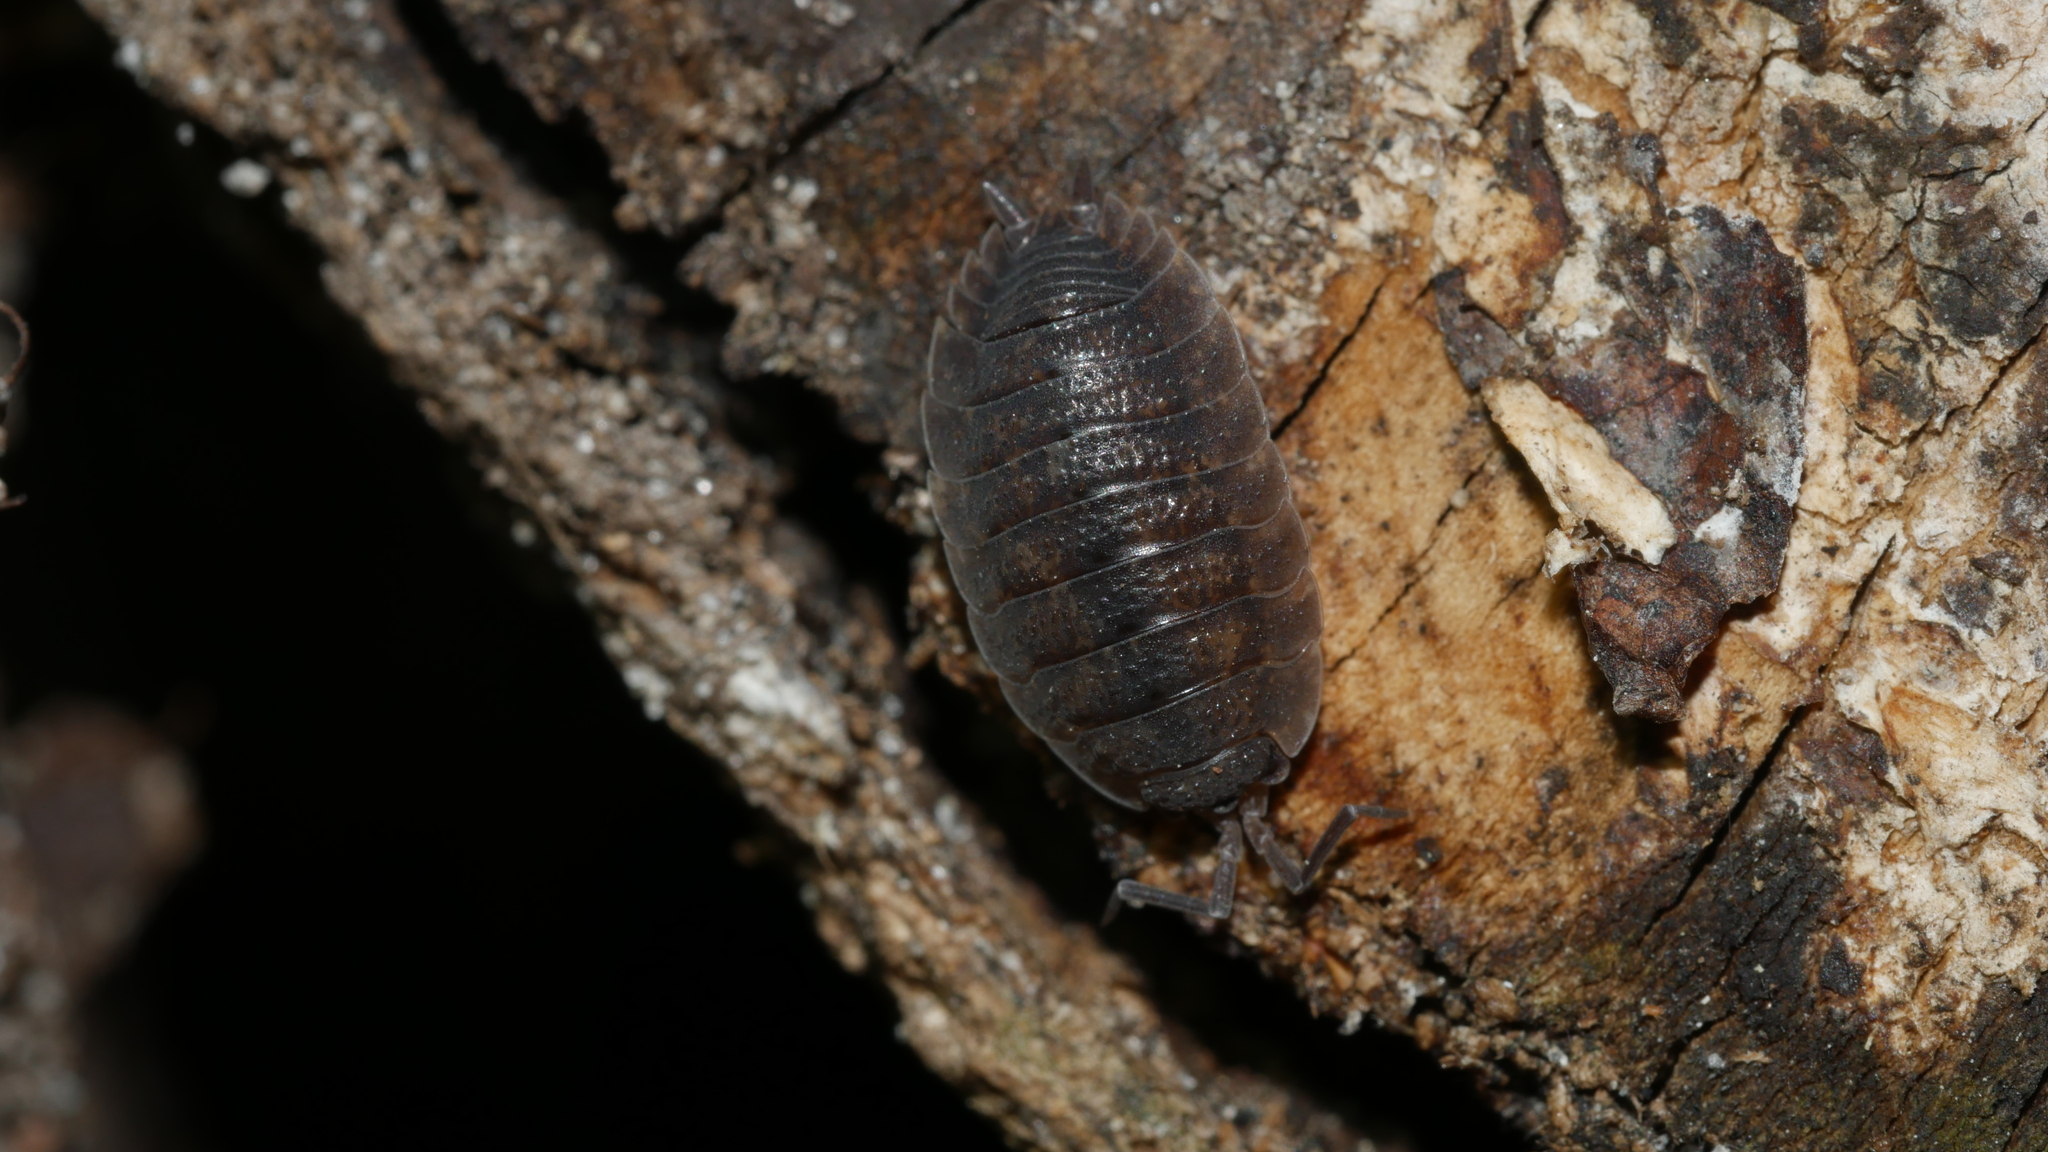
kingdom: Animalia
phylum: Arthropoda
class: Malacostraca
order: Isopoda
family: Porcellionidae
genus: Porcellio
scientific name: Porcellio scaber
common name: Common rough woodlouse
